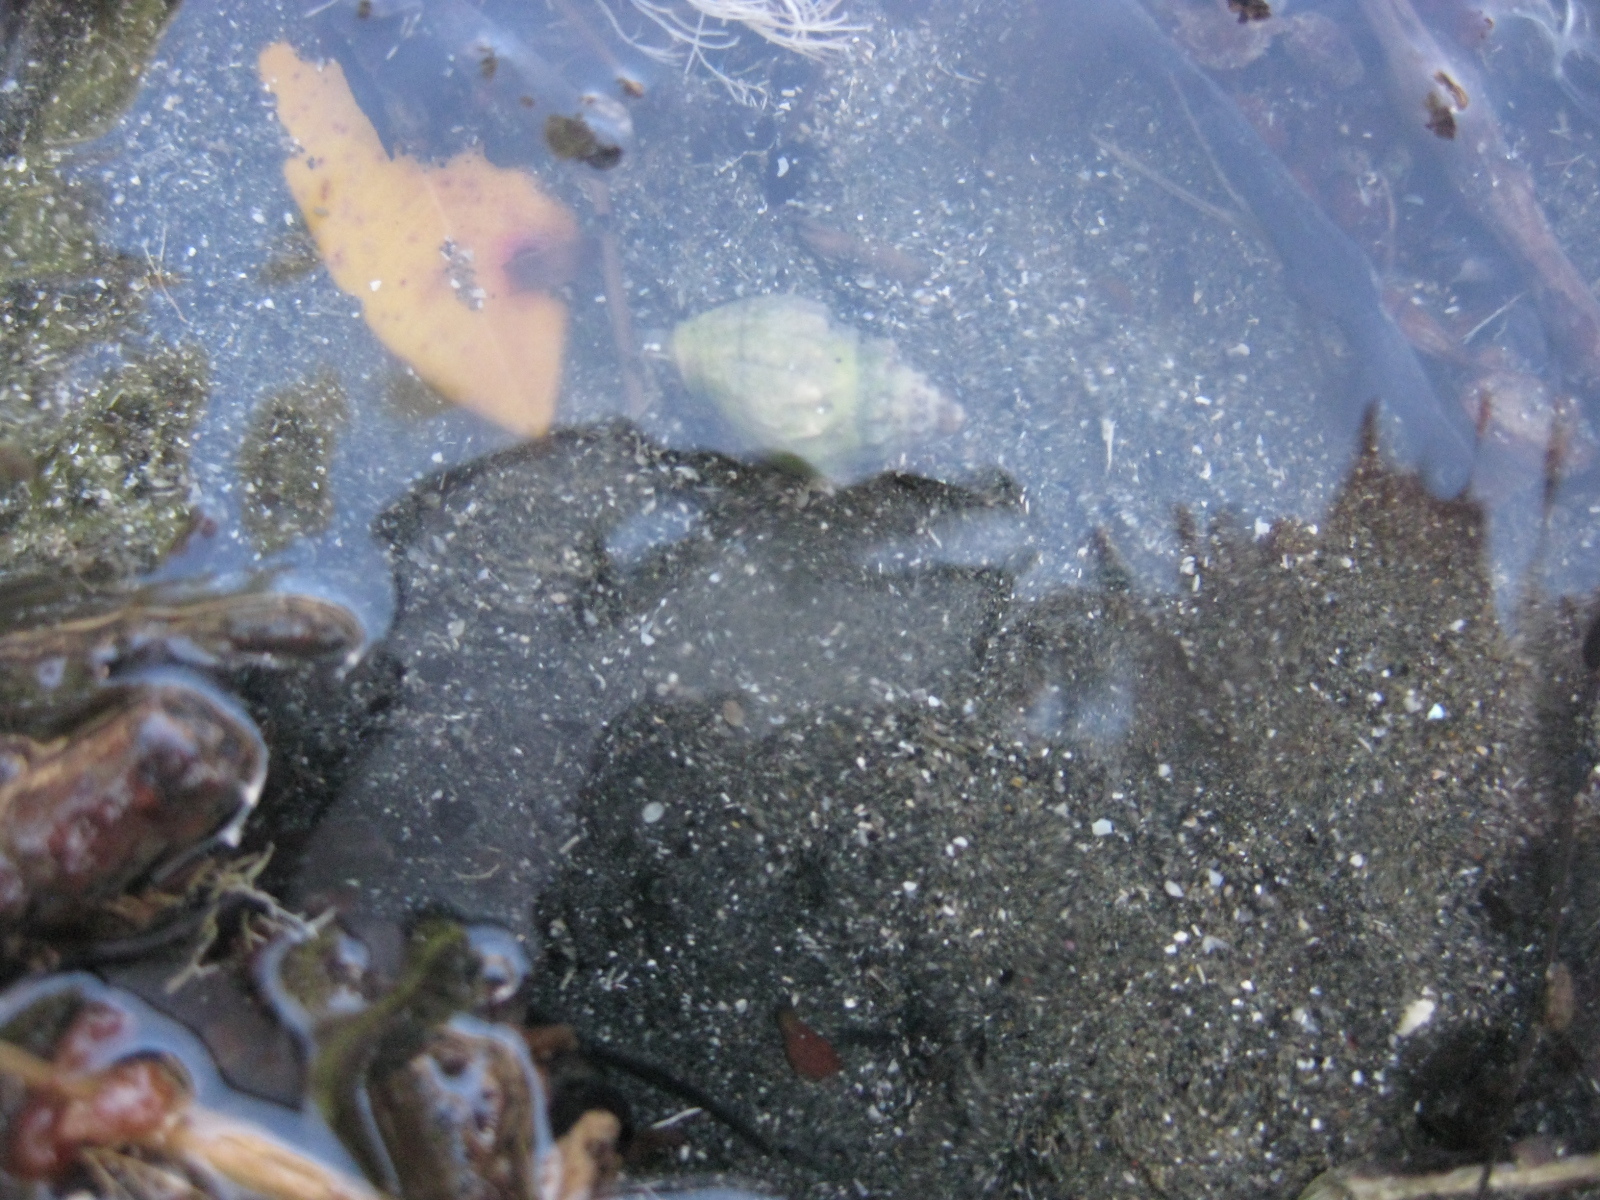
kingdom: Animalia
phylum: Echinodermata
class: Asteroidea
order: Valvatida
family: Asterinidae
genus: Stegnaster
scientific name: Stegnaster inflatus
